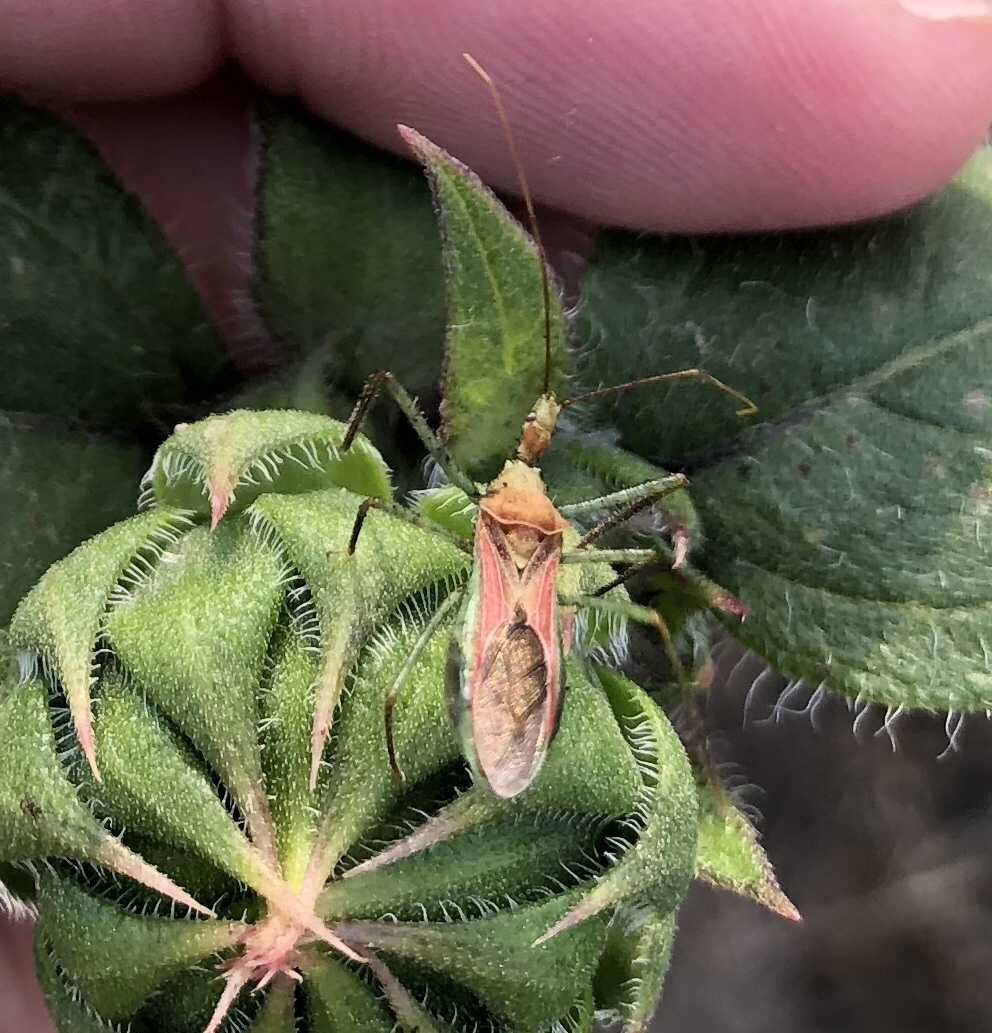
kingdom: Animalia
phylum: Arthropoda
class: Insecta
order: Hemiptera
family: Reduviidae
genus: Zelus
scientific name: Zelus renardii
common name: Assassin bug
